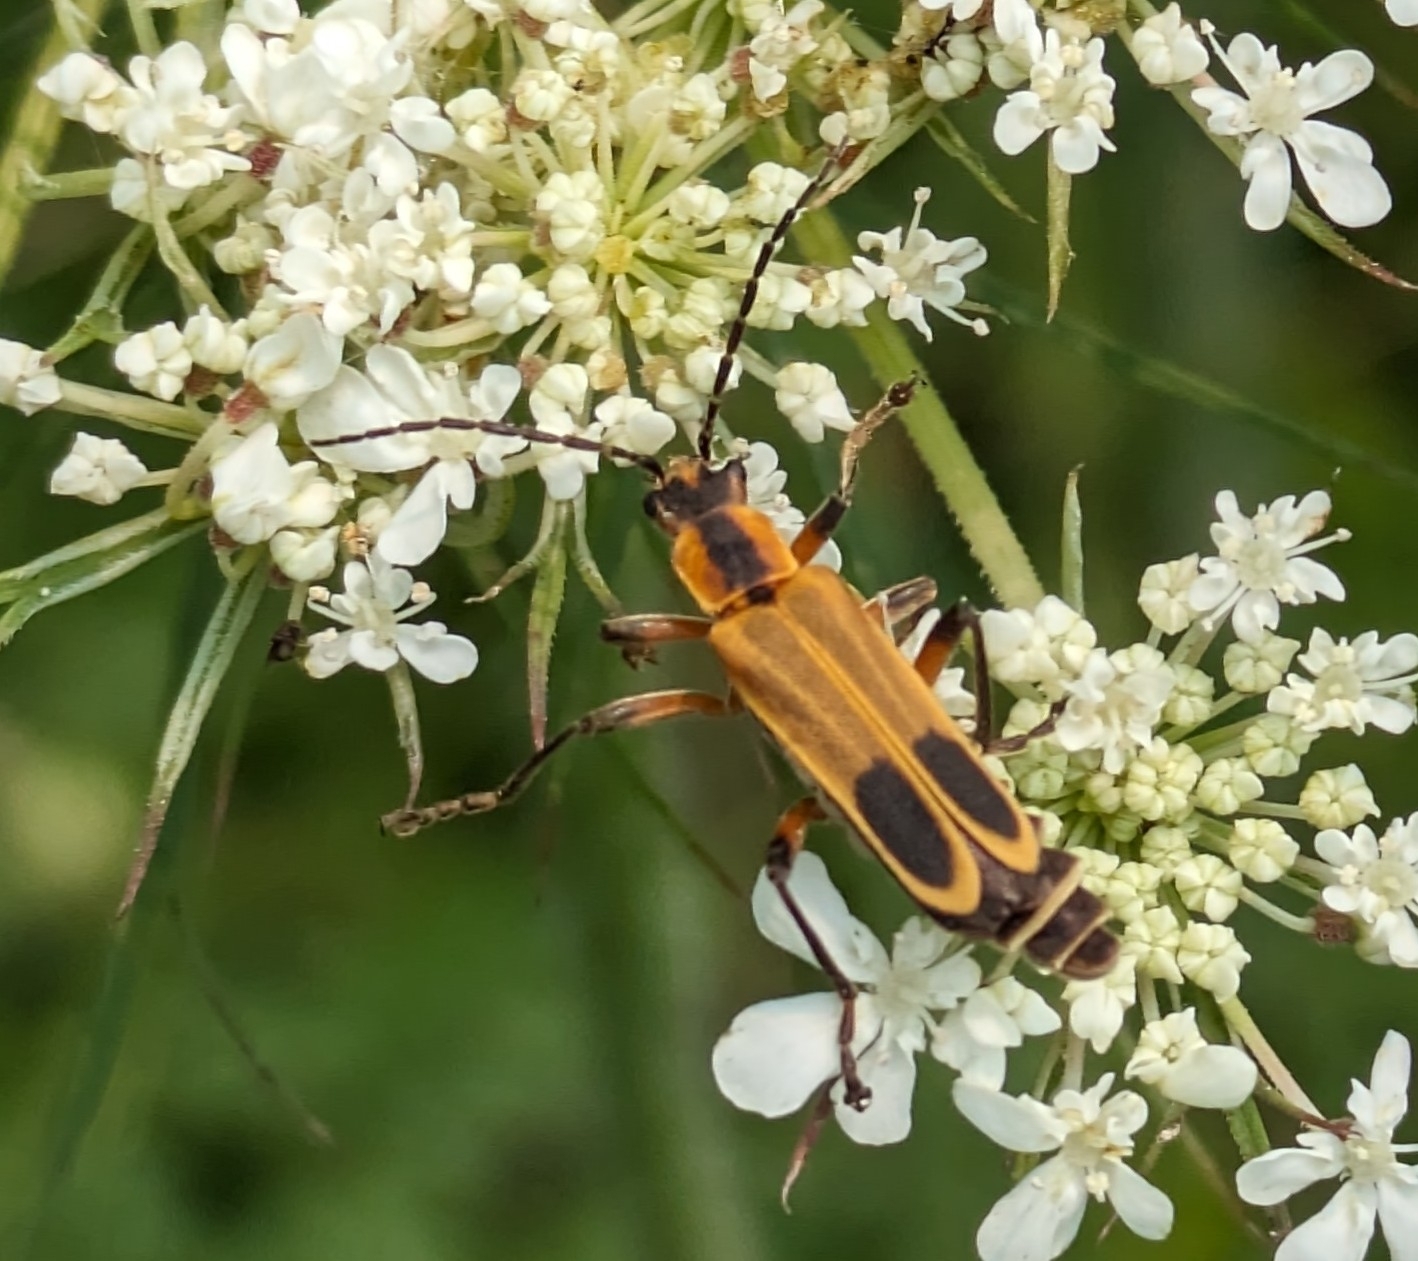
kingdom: Animalia
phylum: Arthropoda
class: Insecta
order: Coleoptera
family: Cantharidae
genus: Chauliognathus
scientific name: Chauliognathus marginatus
